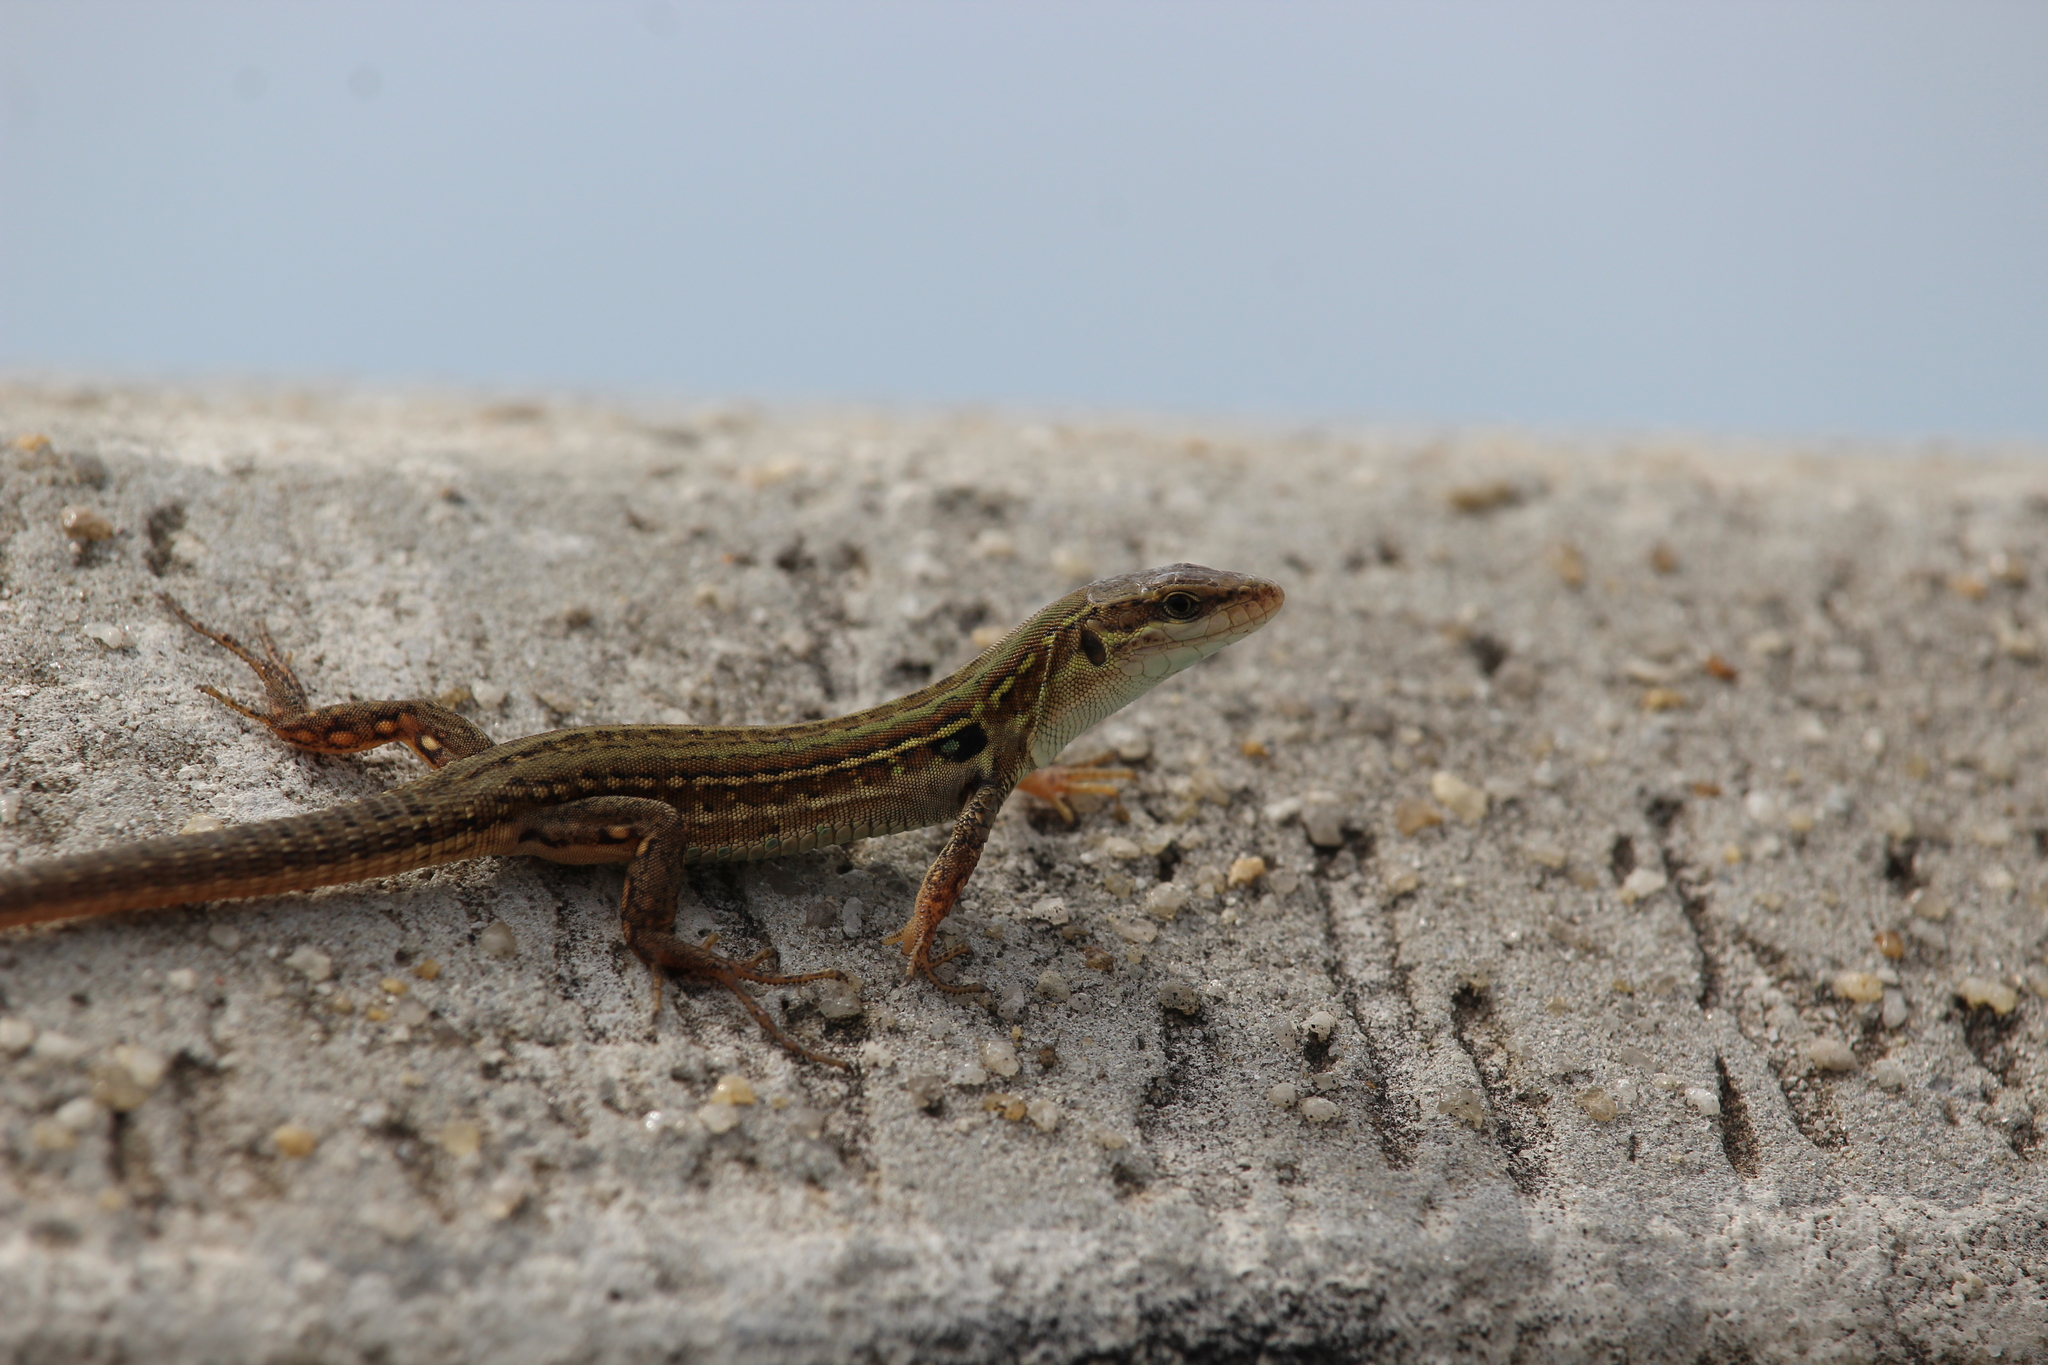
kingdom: Animalia
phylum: Chordata
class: Squamata
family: Lacertidae
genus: Podarcis
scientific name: Podarcis siculus
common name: Italian wall lizard
